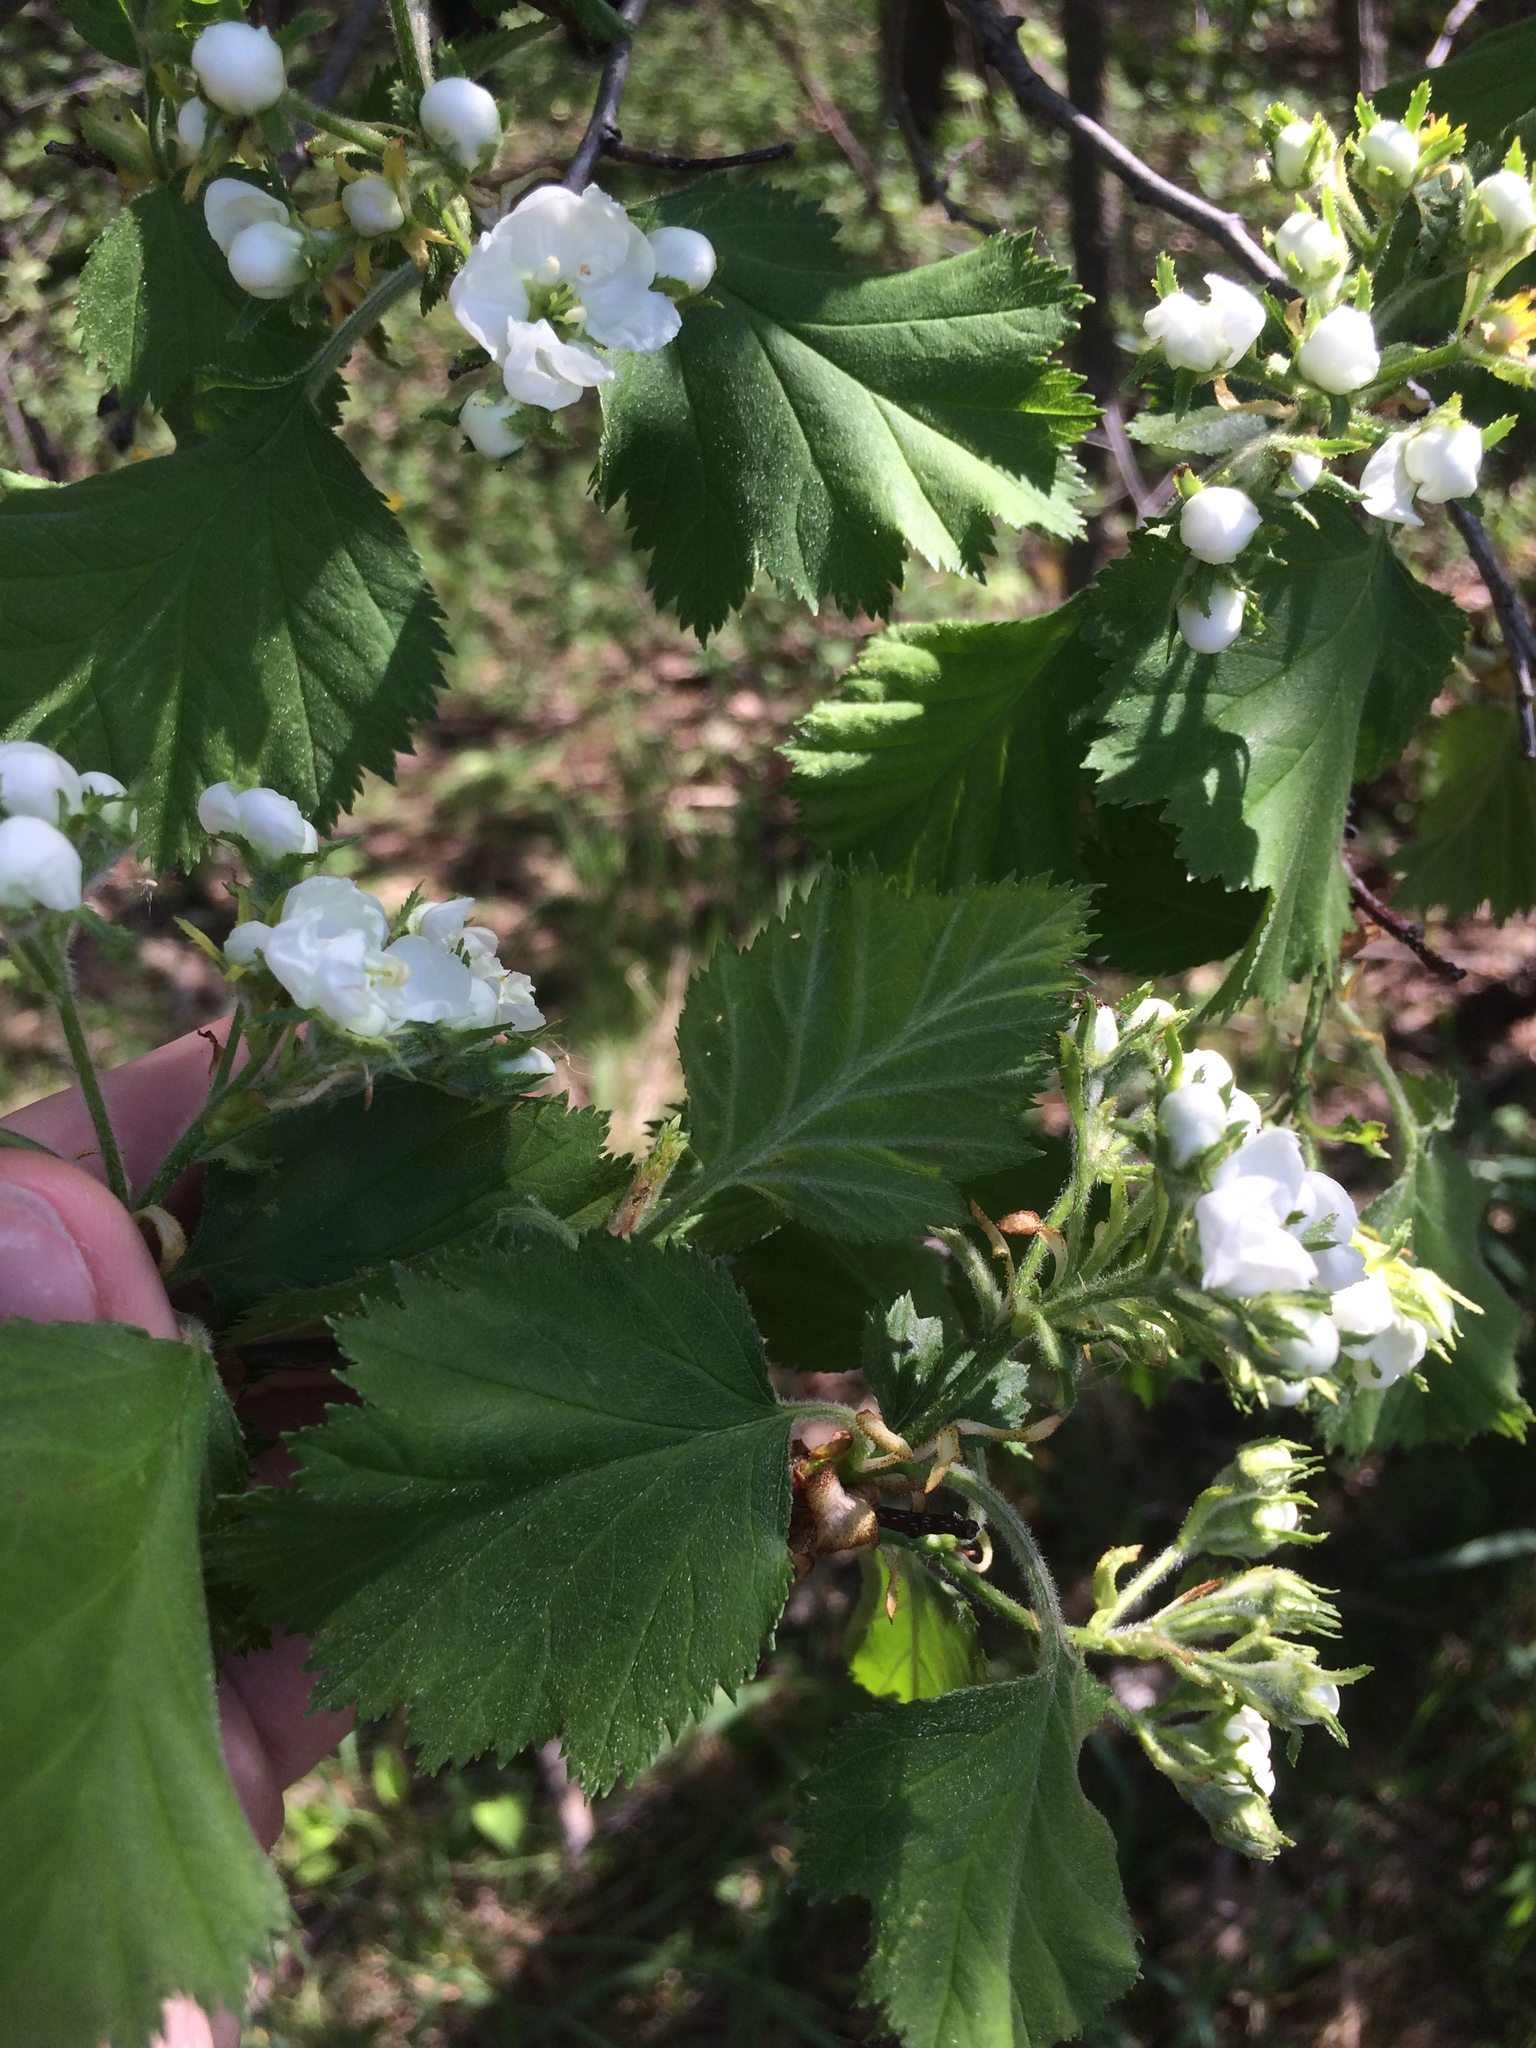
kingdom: Plantae
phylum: Tracheophyta
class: Magnoliopsida
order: Rosales
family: Rosaceae
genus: Crataegus
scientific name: Crataegus submollis
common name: Hairy cockspurthorn
